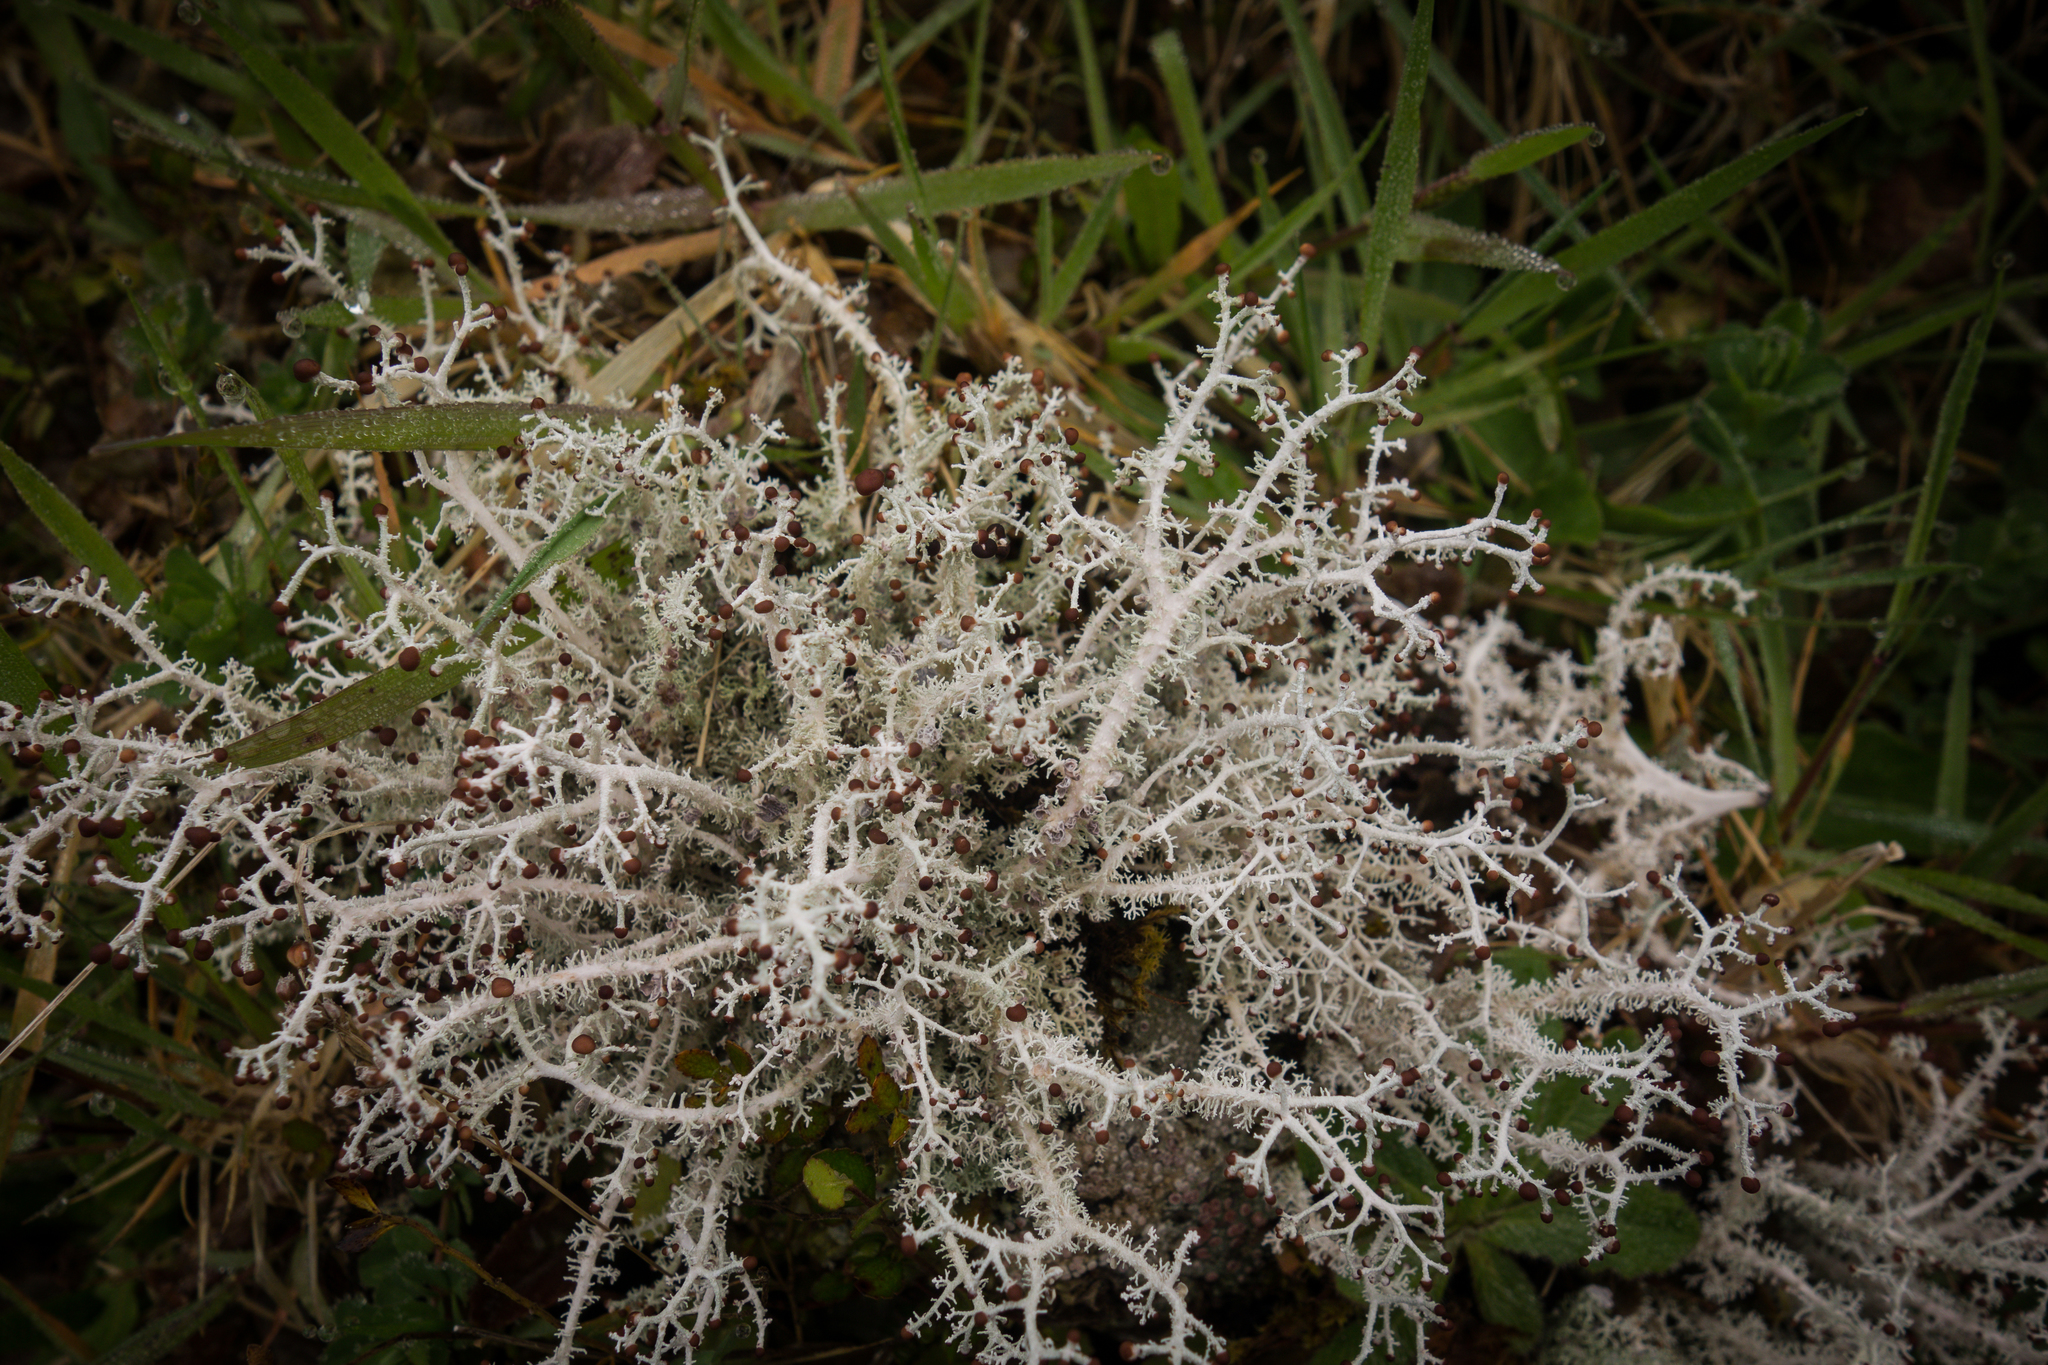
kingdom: Fungi
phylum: Ascomycota
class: Lecanoromycetes
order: Lecanorales
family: Stereocaulaceae
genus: Stereocaulon
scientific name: Stereocaulon ramulosum
